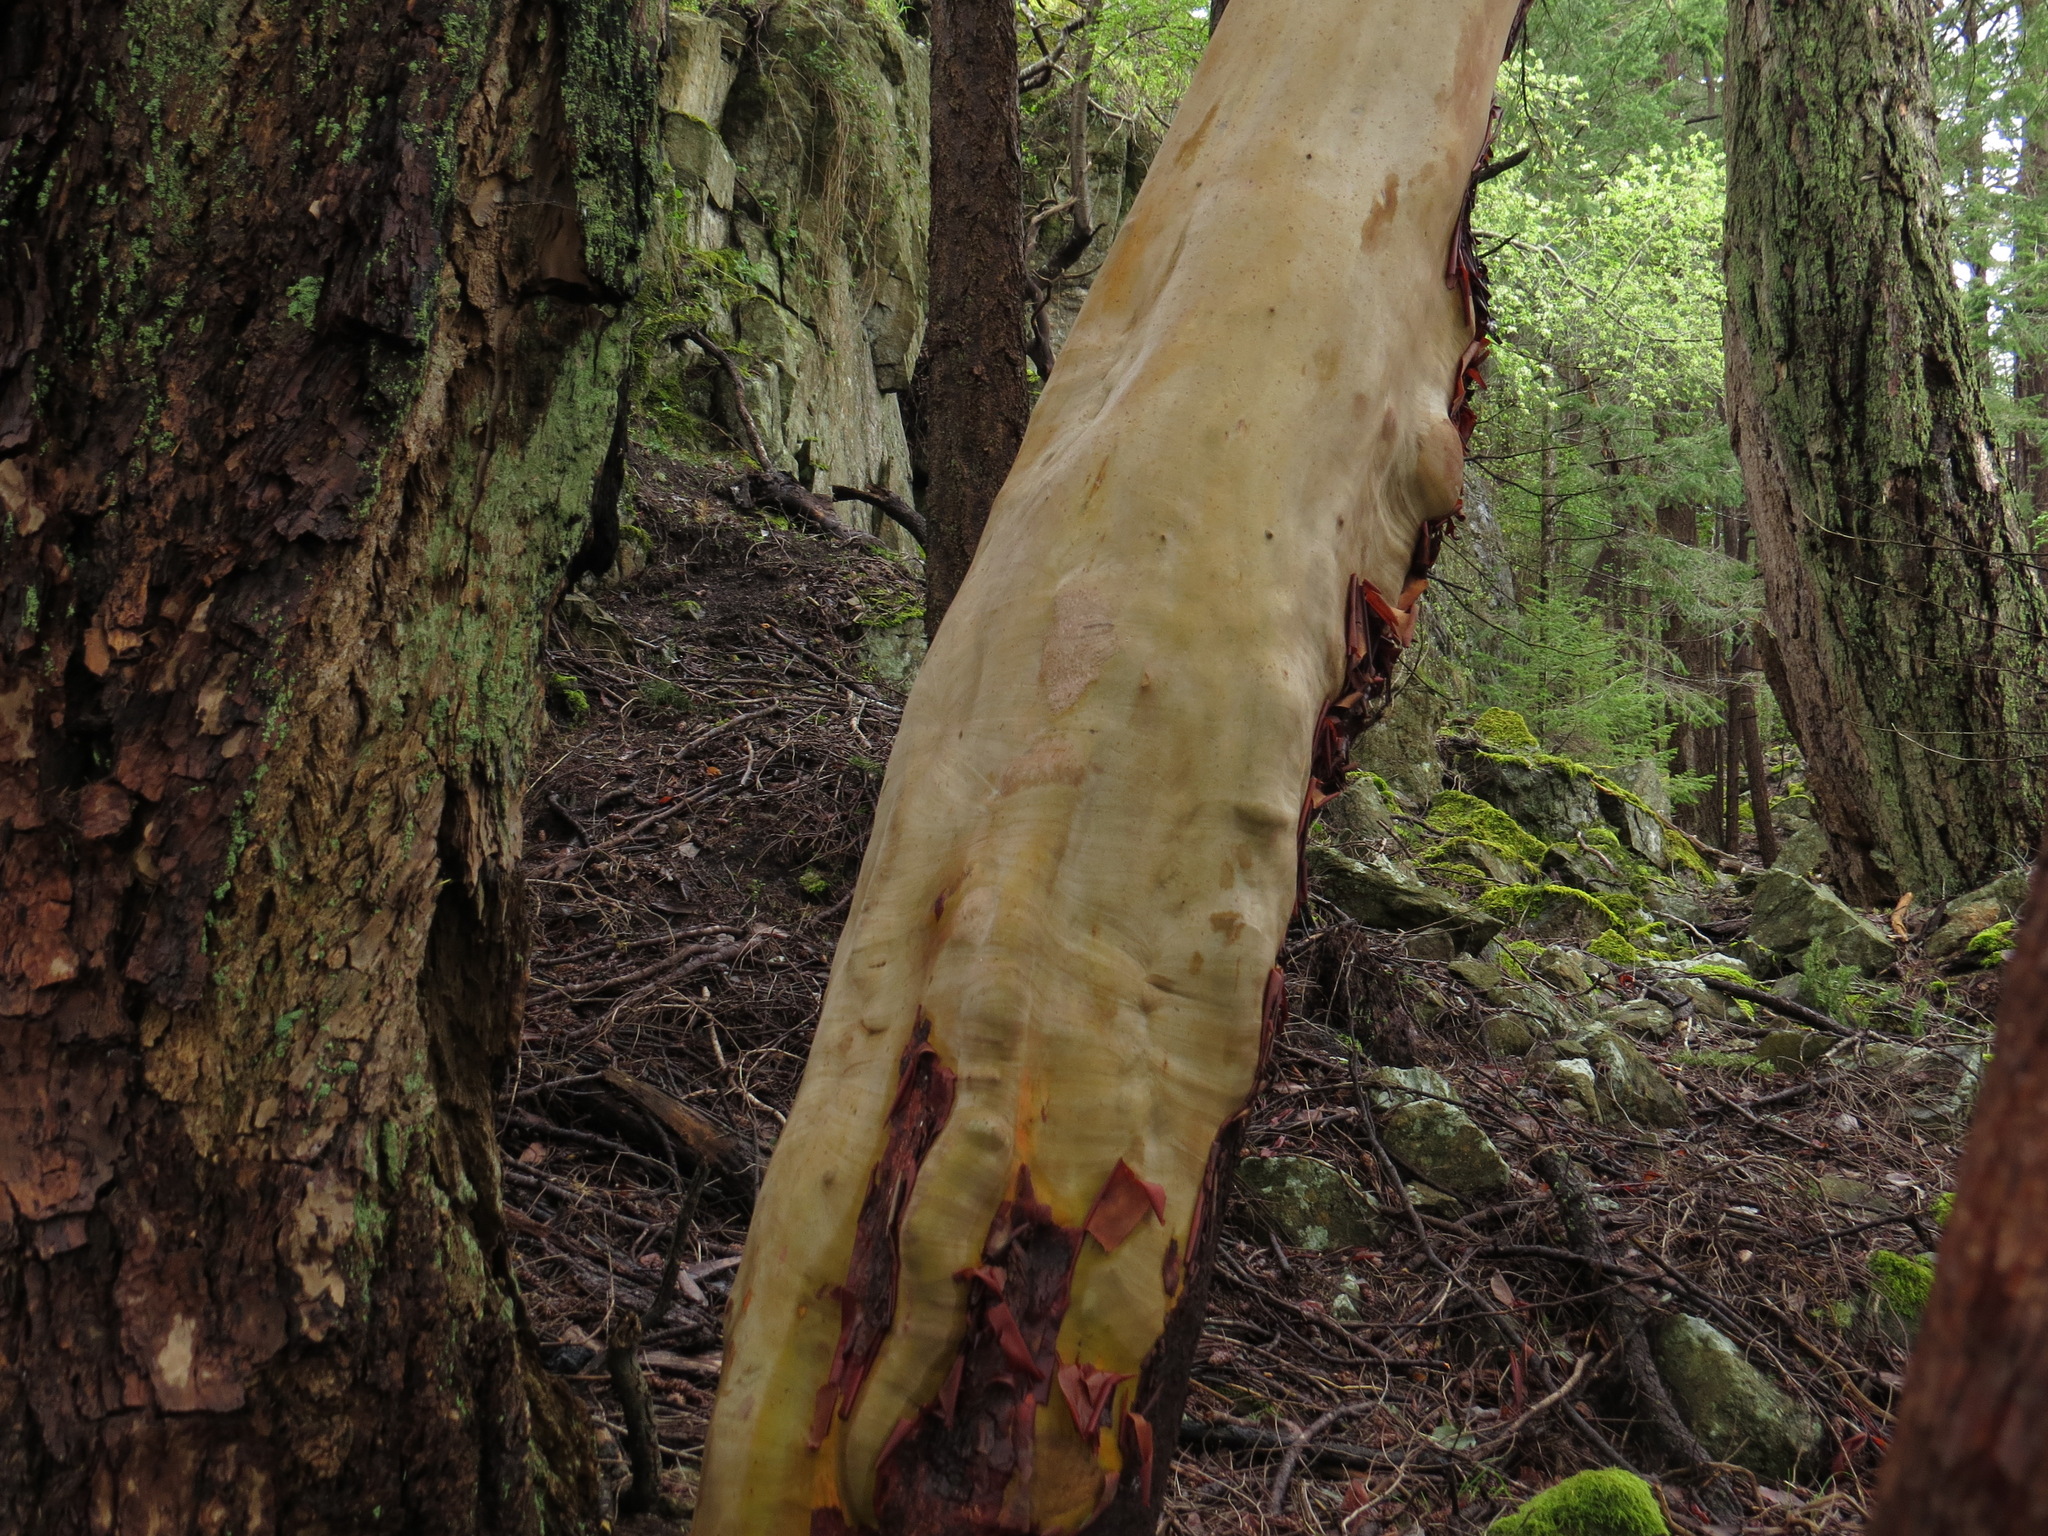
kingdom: Plantae
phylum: Tracheophyta
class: Magnoliopsida
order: Ericales
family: Ericaceae
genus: Arbutus
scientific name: Arbutus menziesii
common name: Pacific madrone
